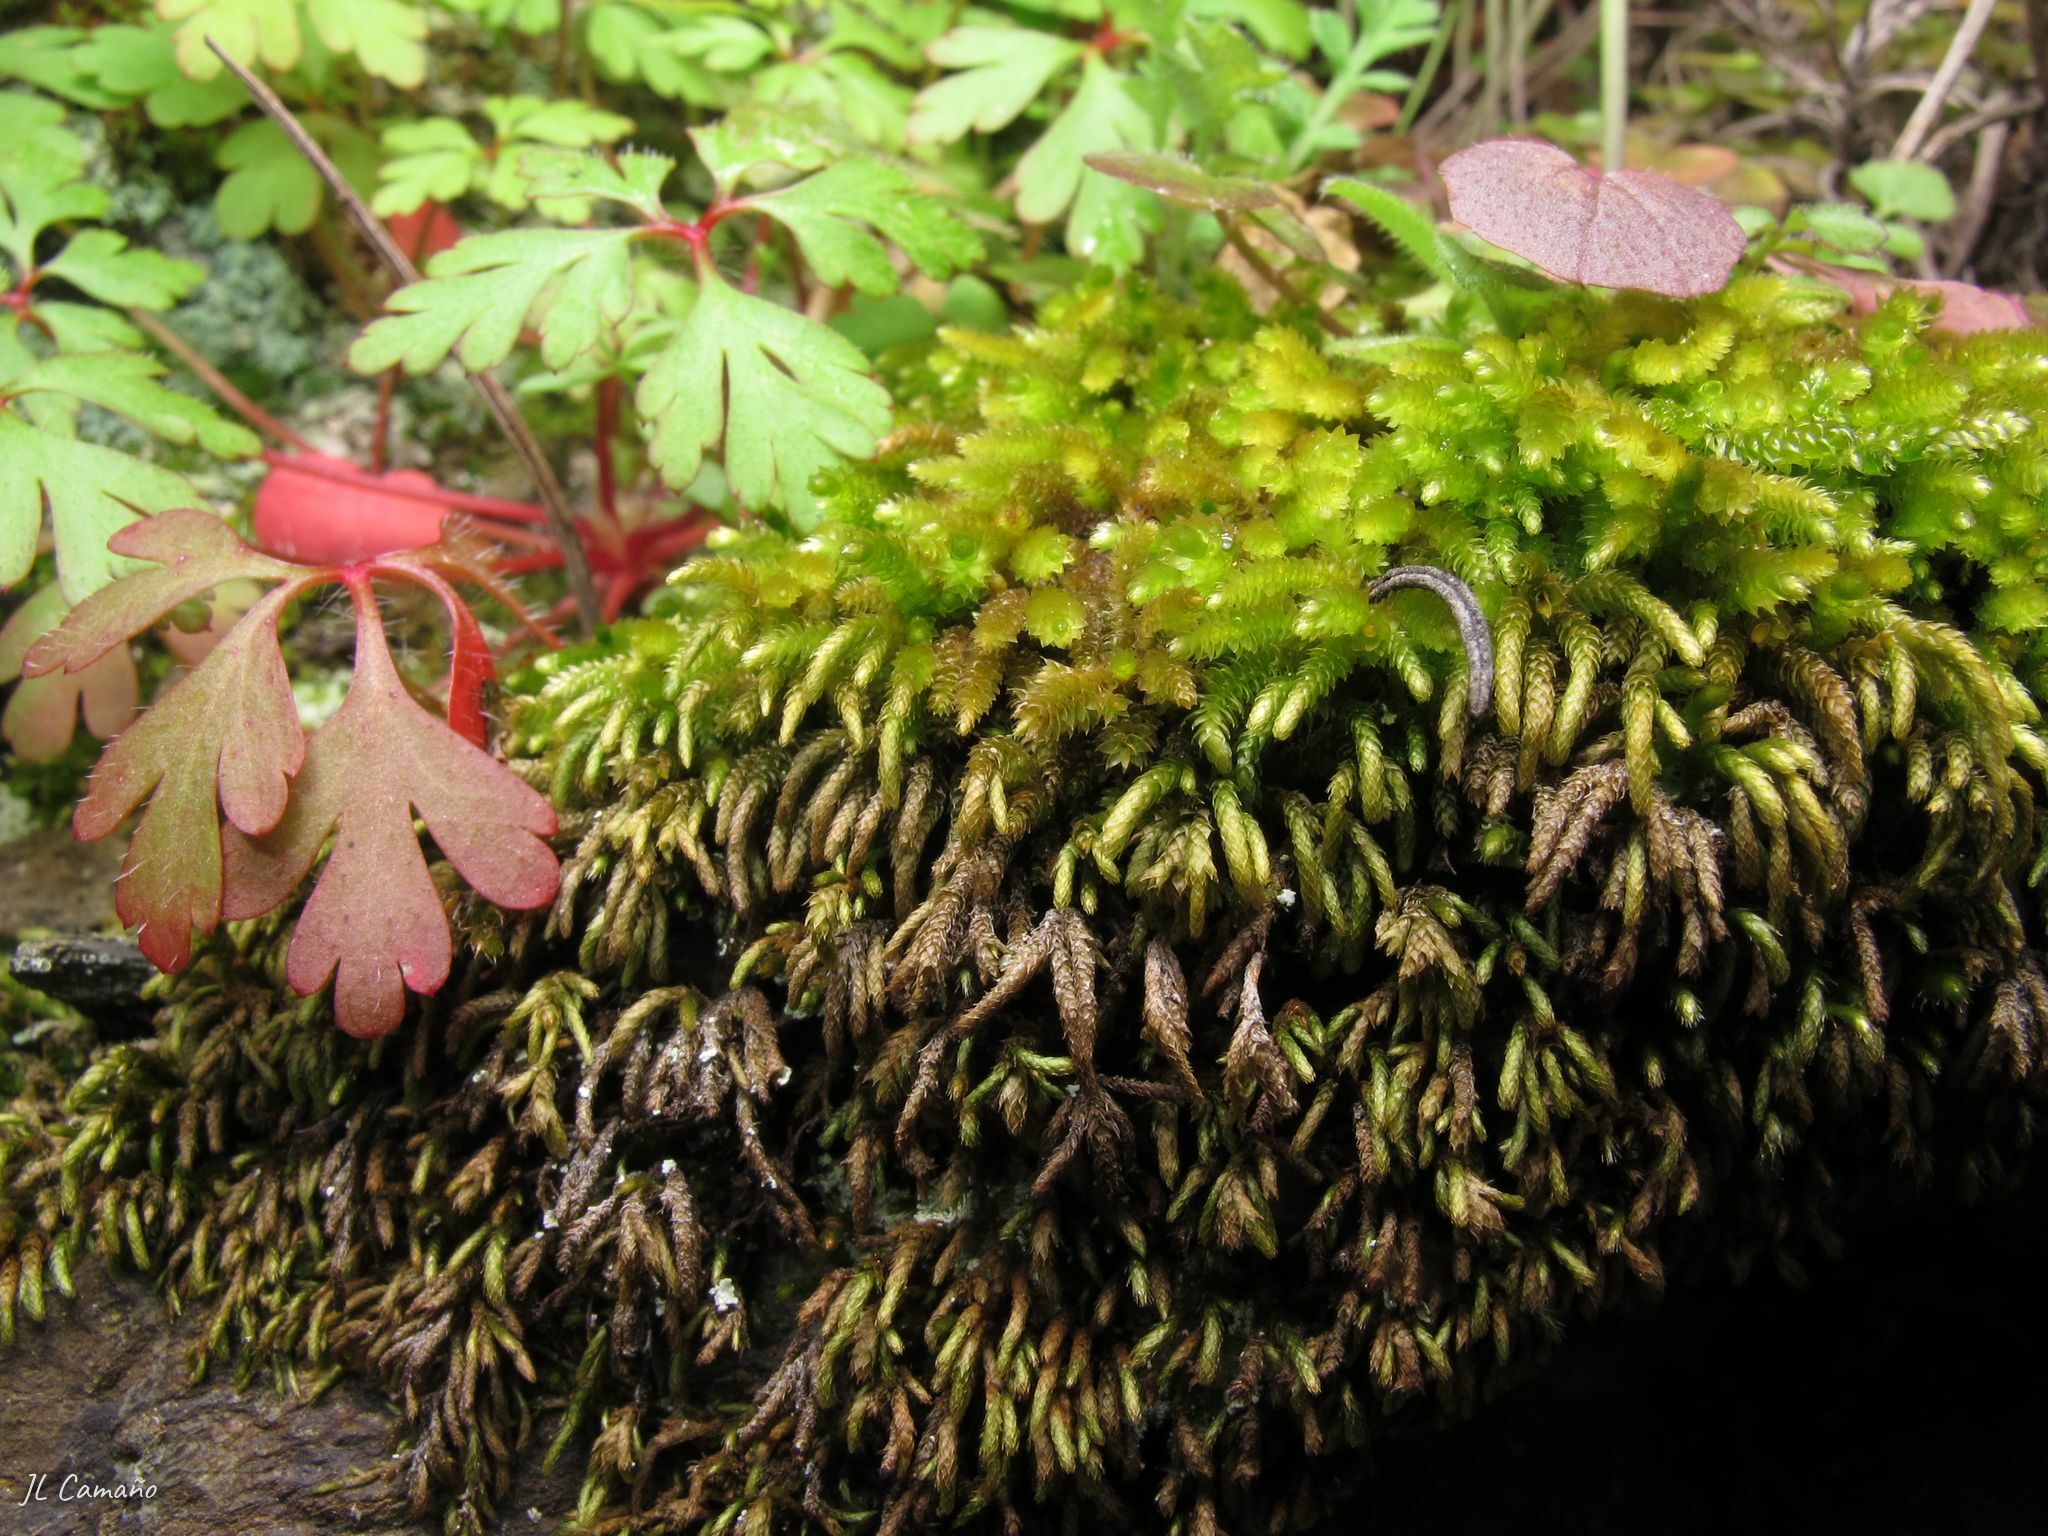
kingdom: Plantae
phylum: Bryophyta
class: Bryopsida
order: Hypnales
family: Lembophyllaceae
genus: Nogopterium
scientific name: Nogopterium gracile
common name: Bird's-foot wing-moss
